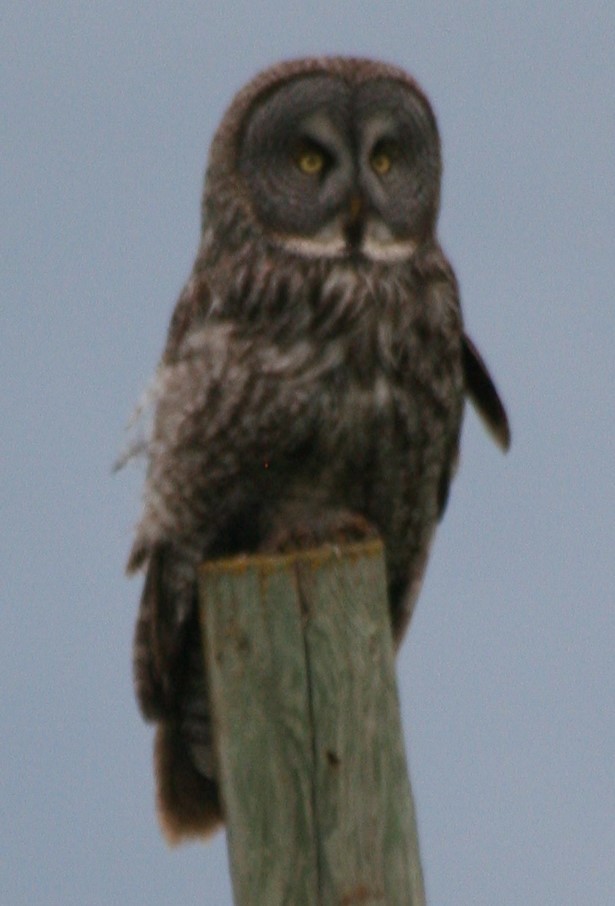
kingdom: Animalia
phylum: Chordata
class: Aves
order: Strigiformes
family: Strigidae
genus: Strix
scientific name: Strix nebulosa
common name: Great grey owl
